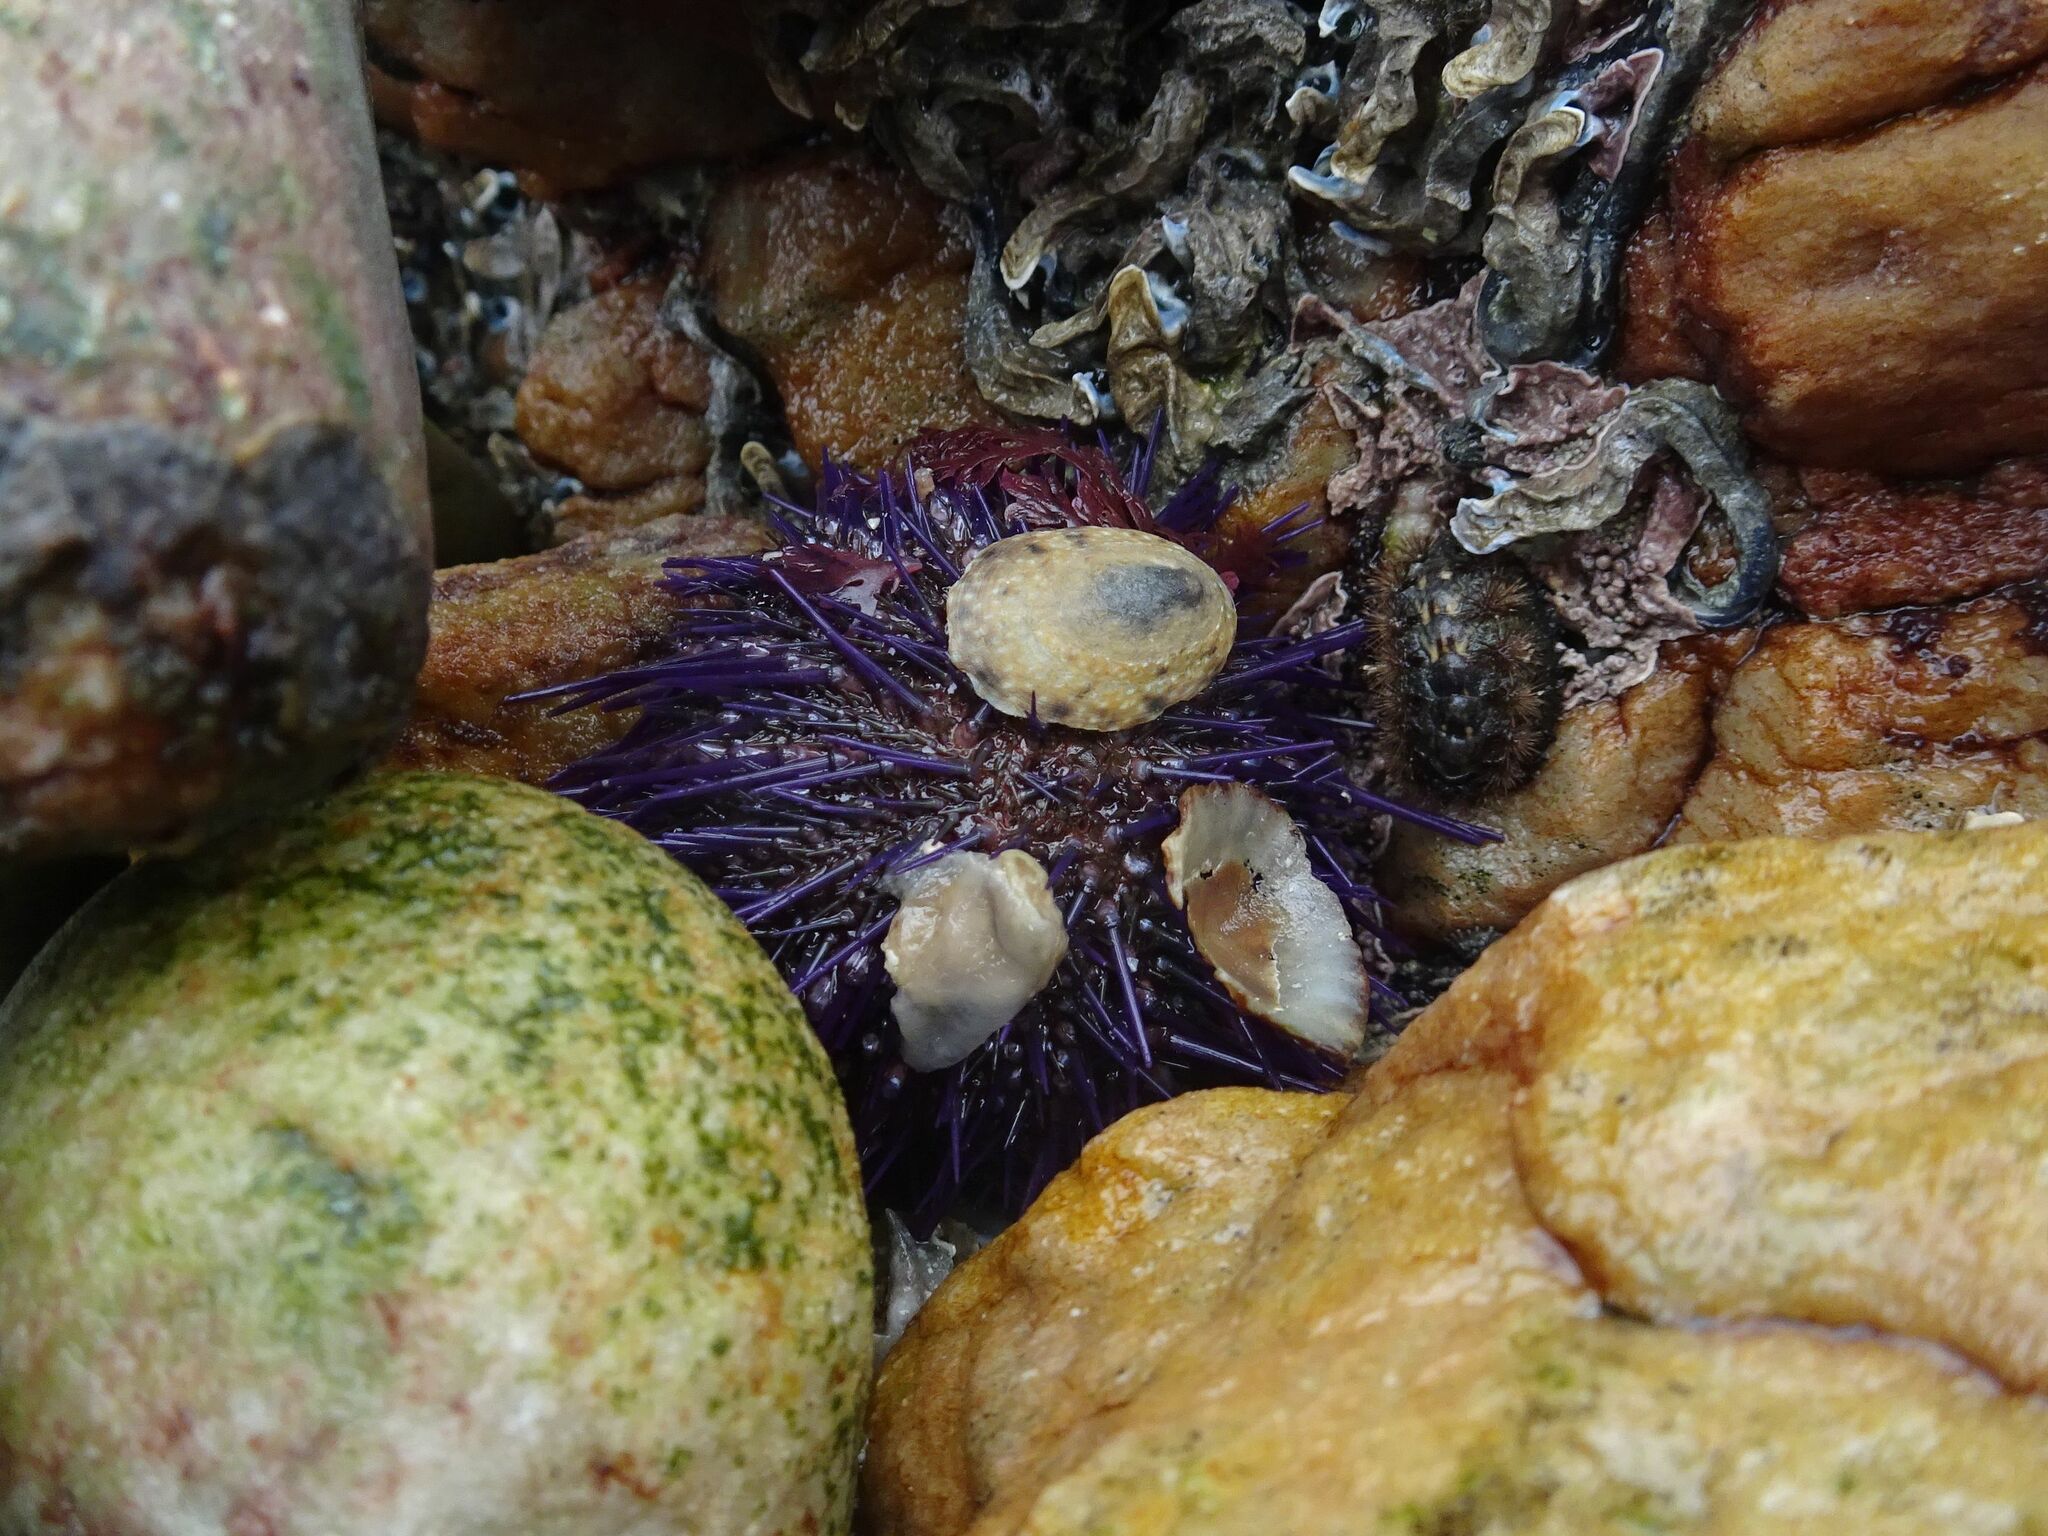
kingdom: Animalia
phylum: Echinodermata
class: Echinoidea
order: Camarodonta
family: Parechinidae
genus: Parechinus
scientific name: Parechinus angulosus
